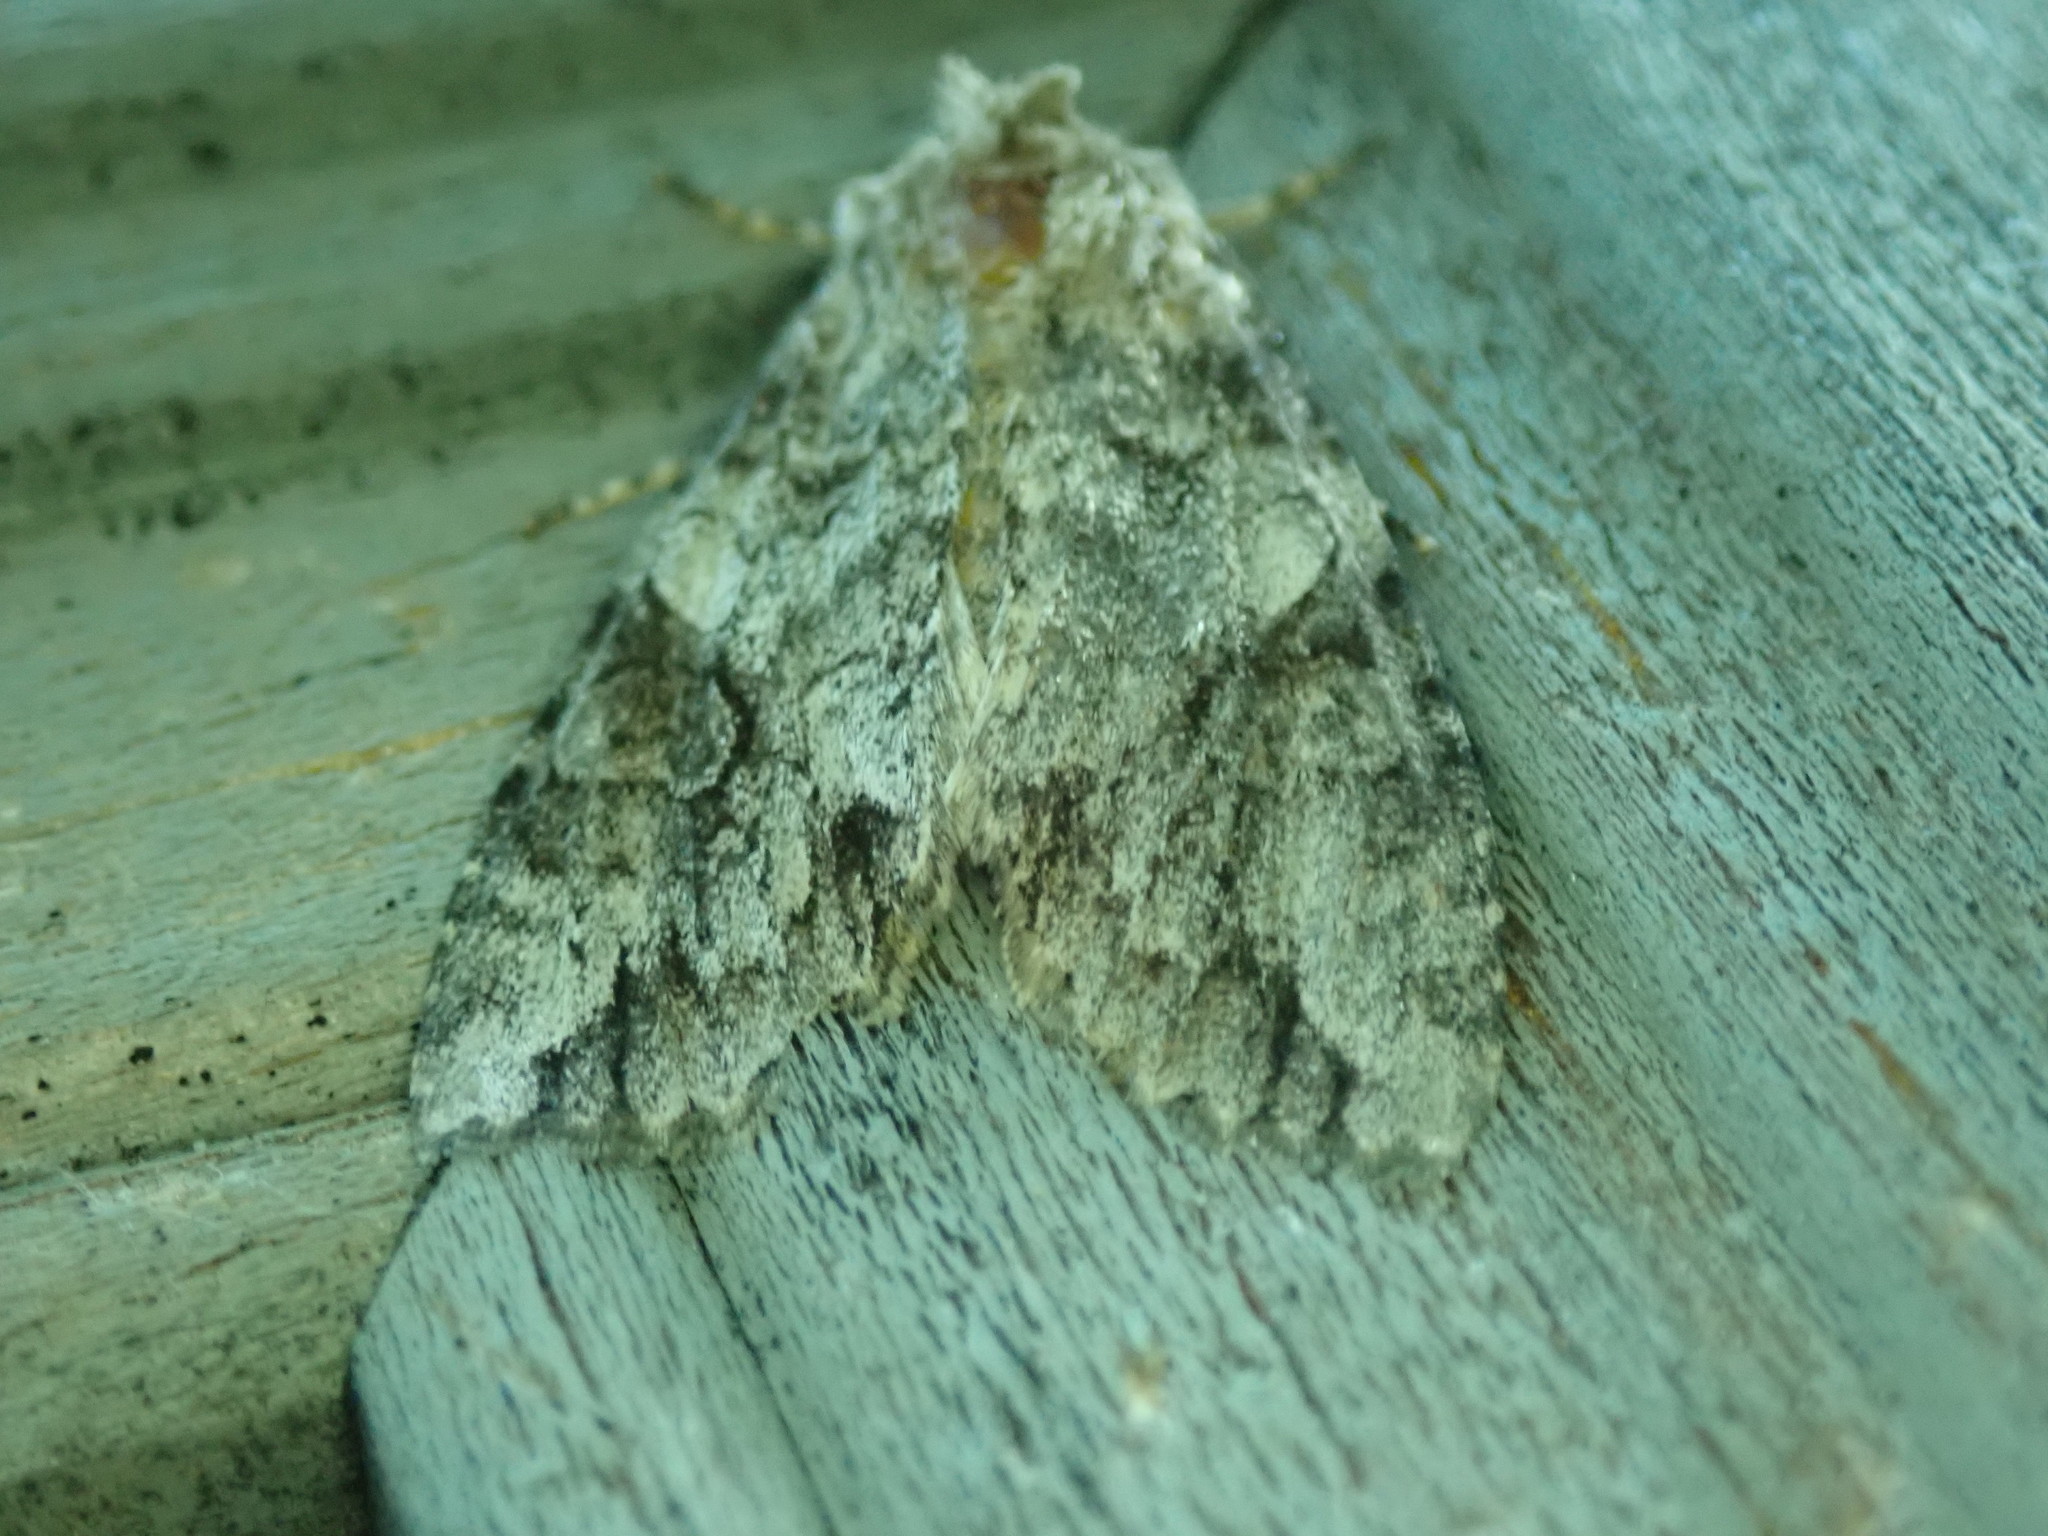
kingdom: Animalia
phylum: Arthropoda
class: Insecta
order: Lepidoptera
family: Noctuidae
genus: Achatia
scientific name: Achatia latex
